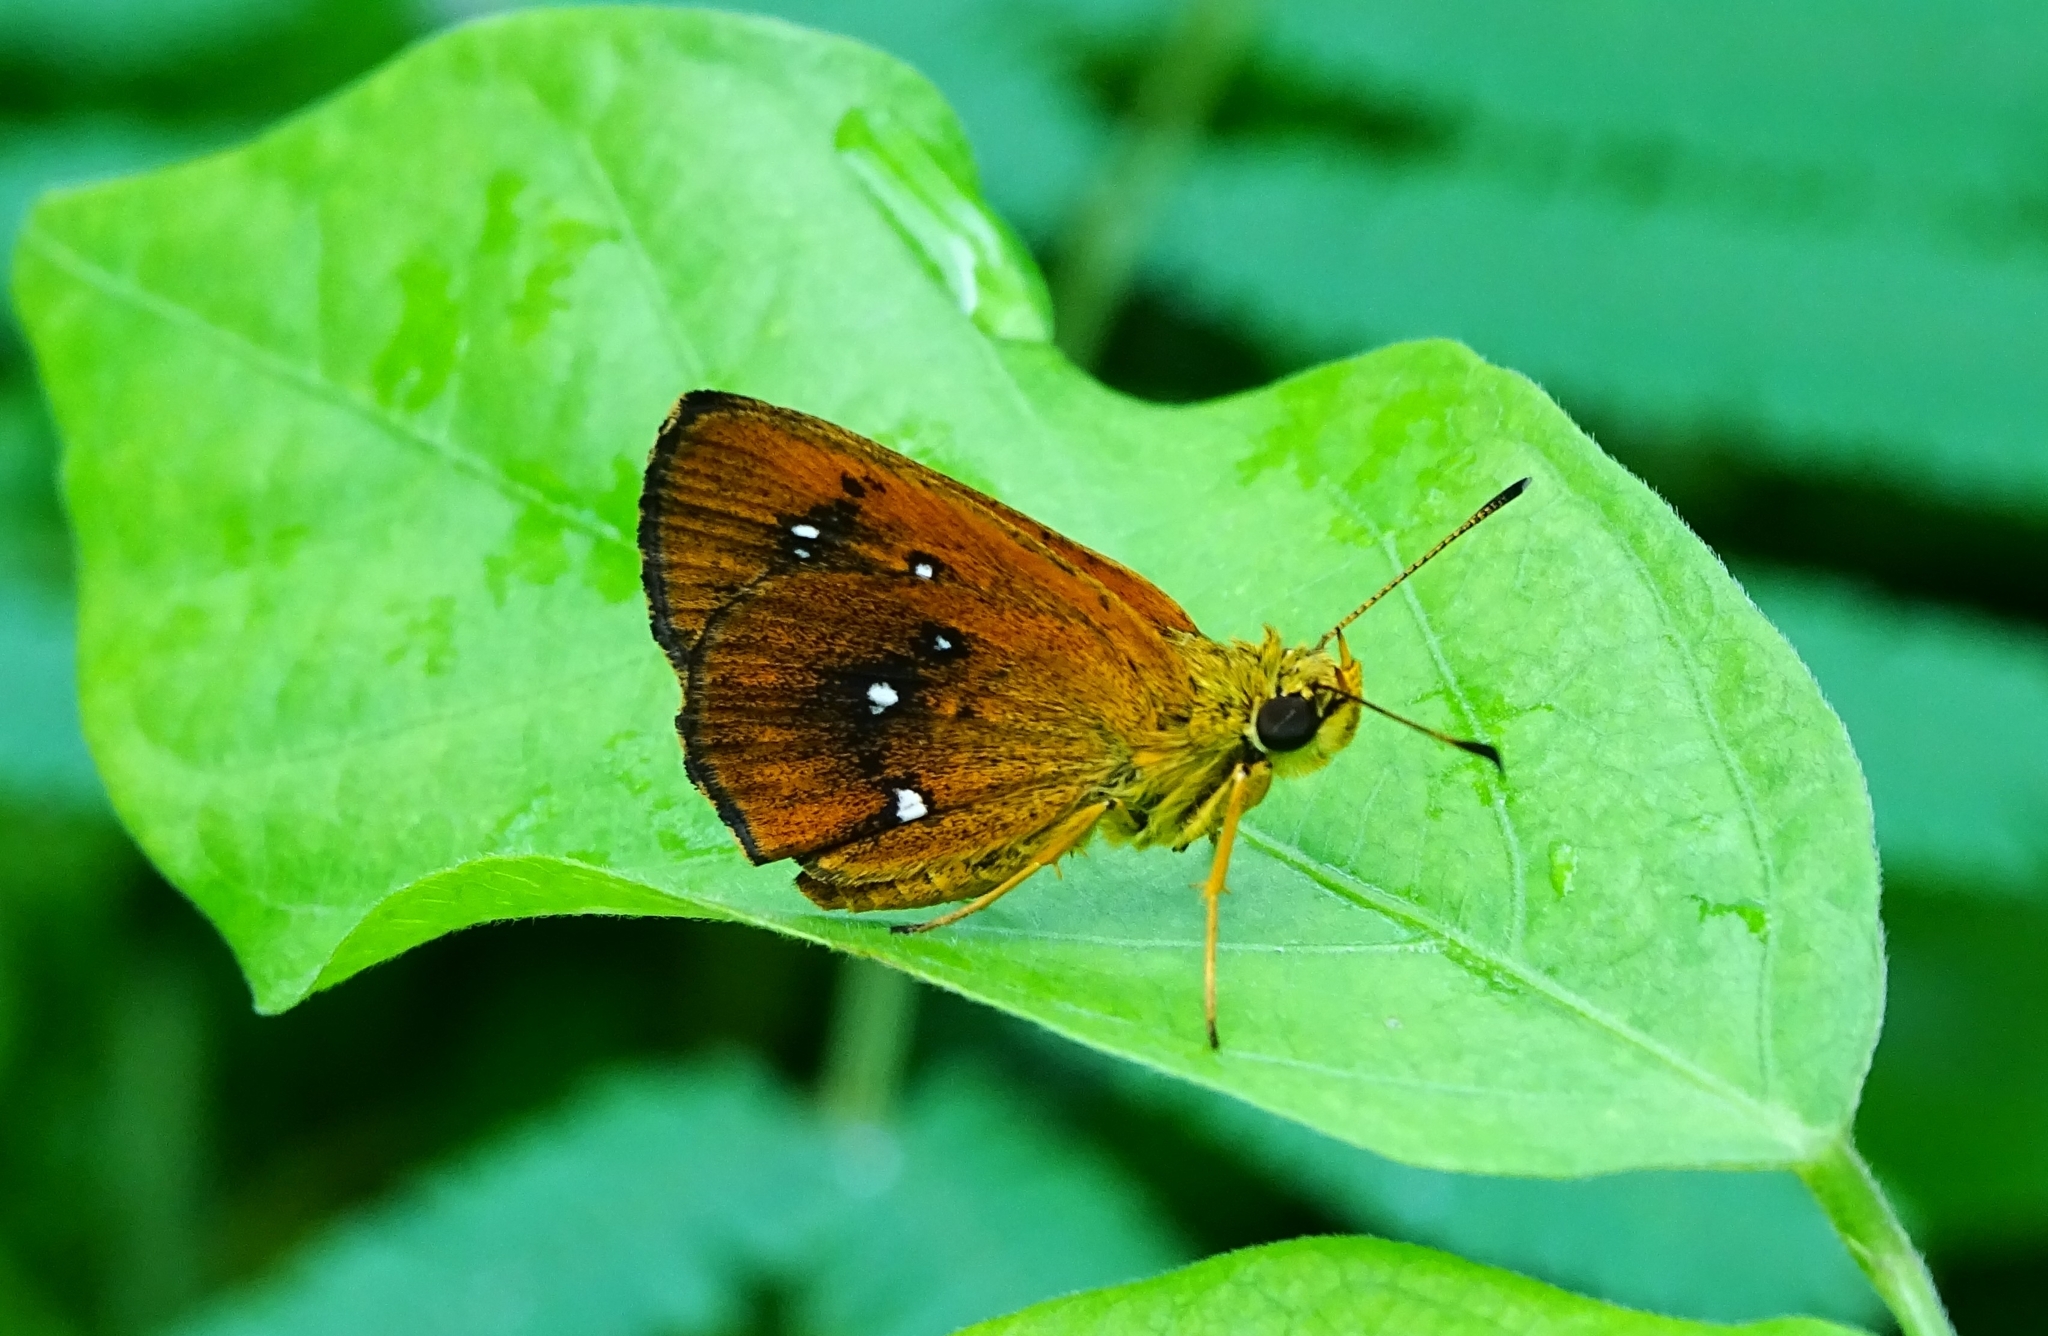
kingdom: Animalia
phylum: Arthropoda
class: Insecta
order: Lepidoptera
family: Hesperiidae
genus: Iambrix
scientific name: Iambrix salsala
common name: Chestnut bob
